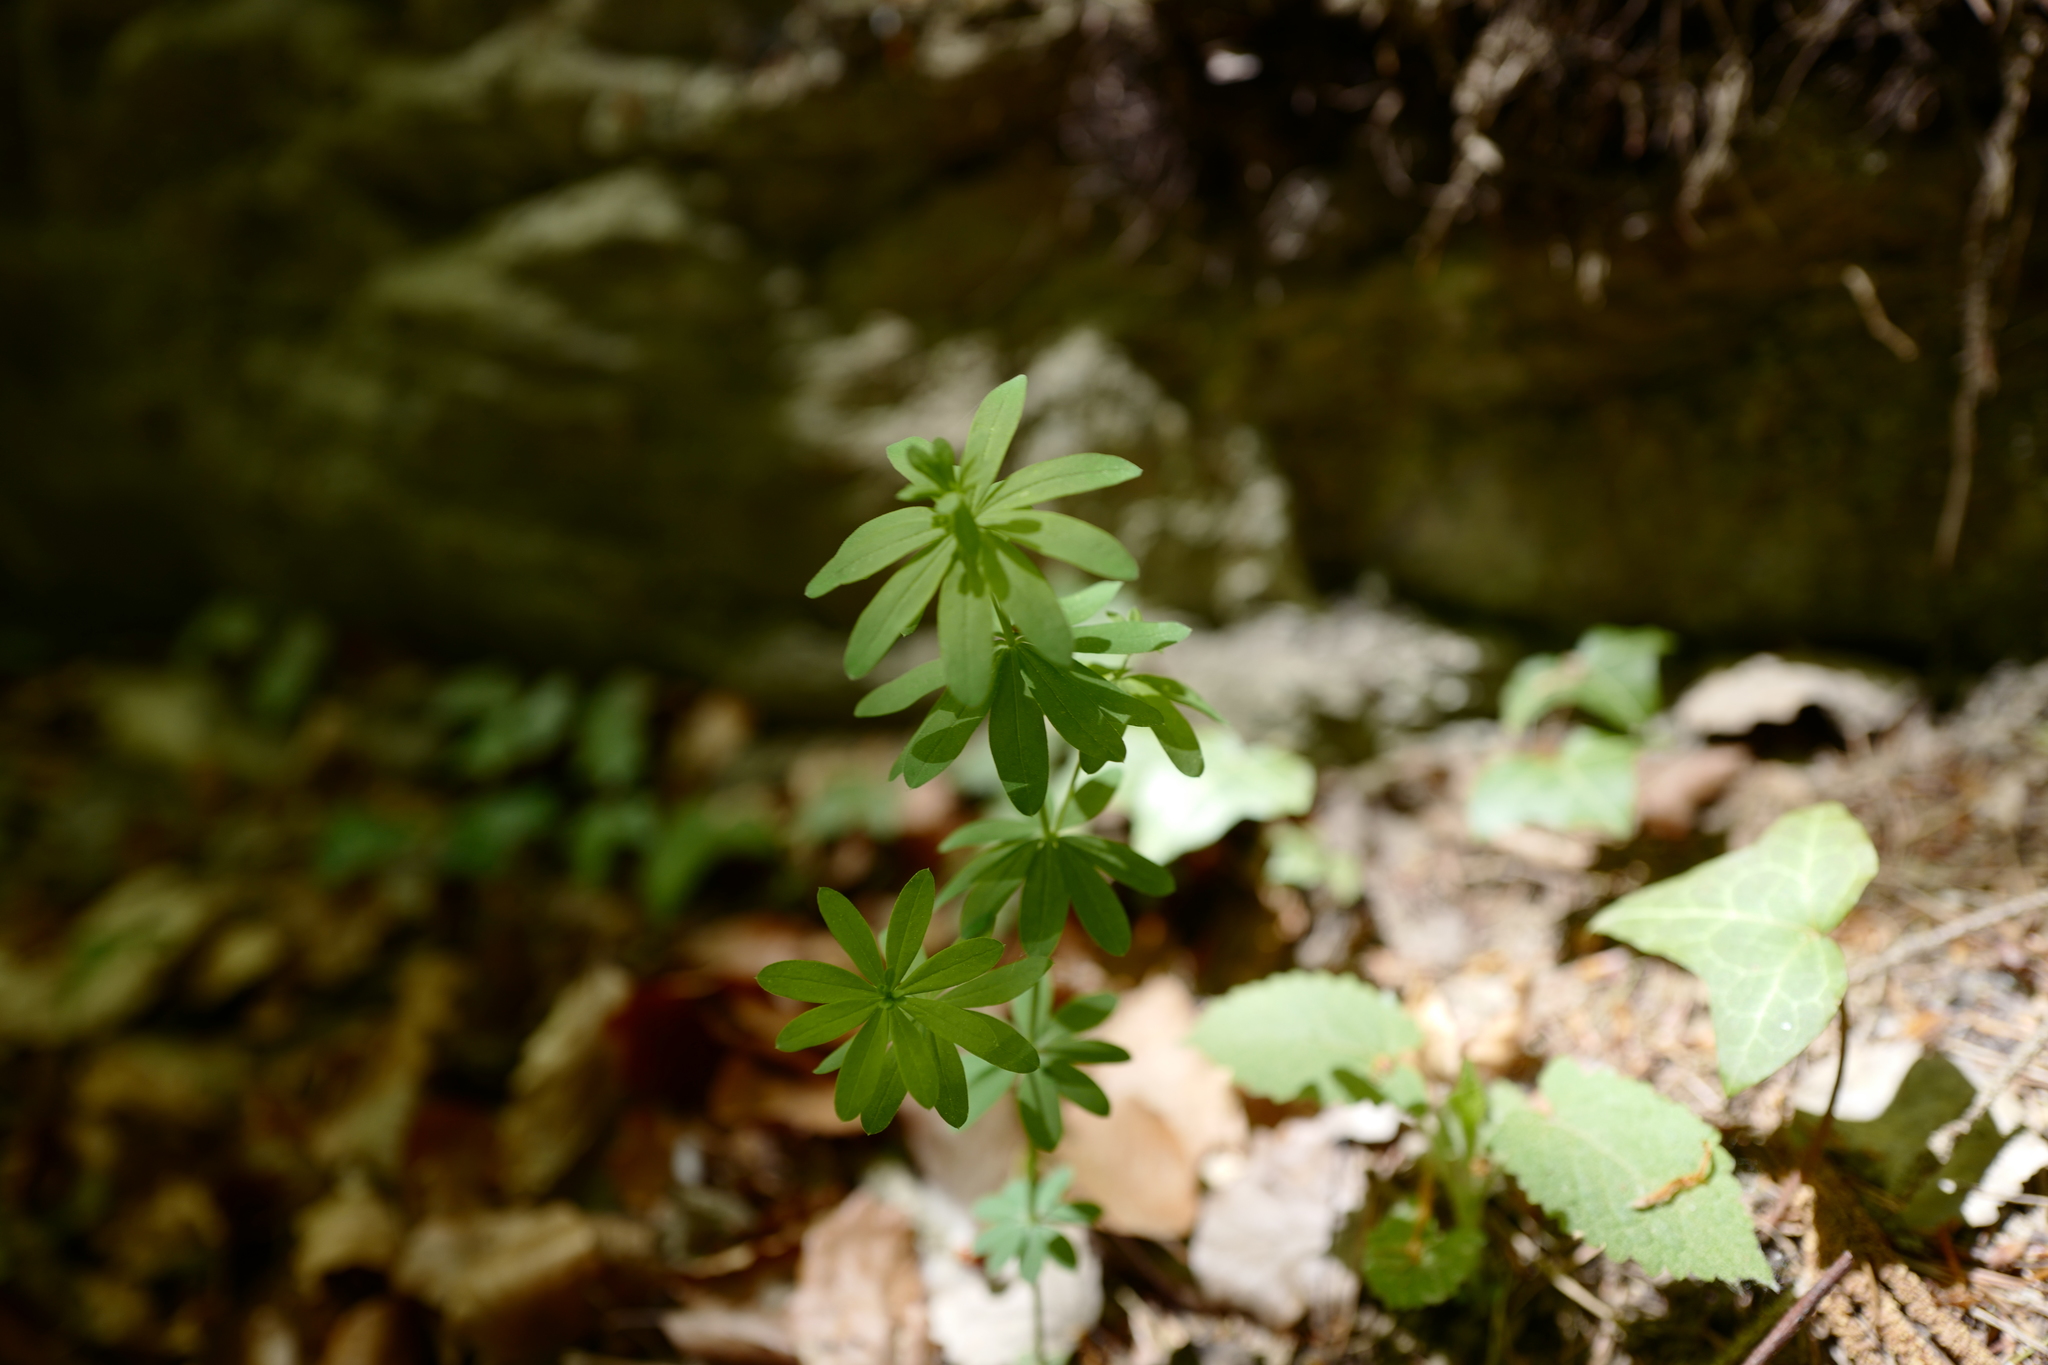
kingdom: Plantae
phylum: Tracheophyta
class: Magnoliopsida
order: Gentianales
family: Rubiaceae
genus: Galium
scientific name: Galium odoratum
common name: Sweet woodruff
